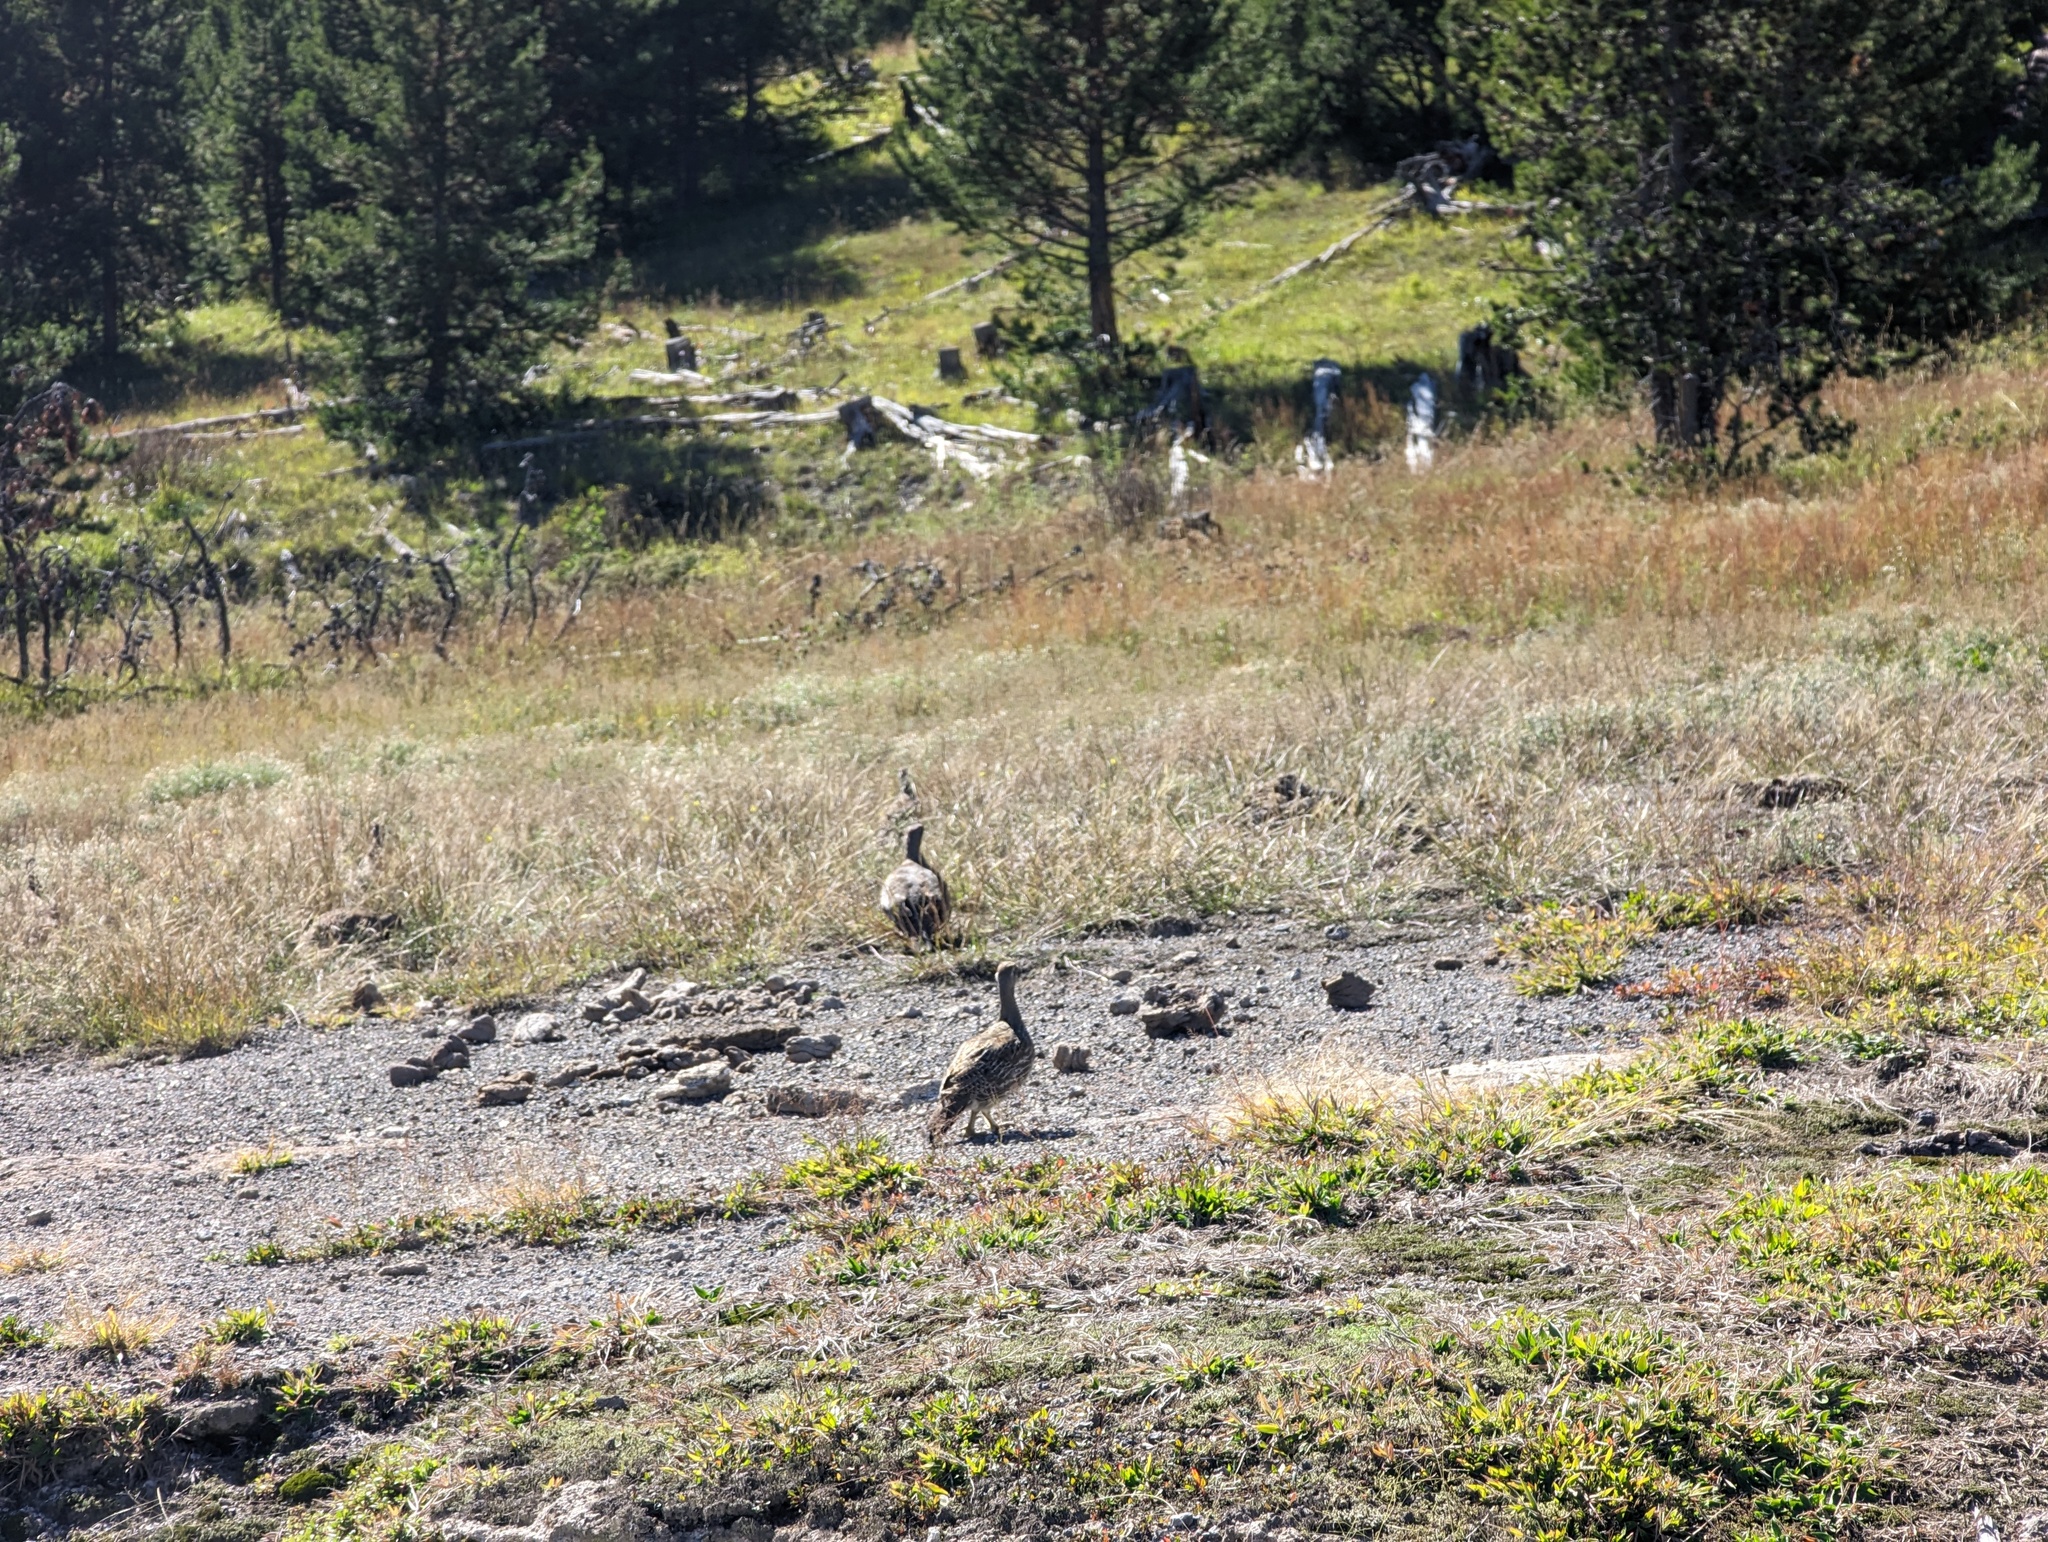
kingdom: Animalia
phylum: Chordata
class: Aves
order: Galliformes
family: Phasianidae
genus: Dendragapus
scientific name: Dendragapus obscurus
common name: Dusky grouse
